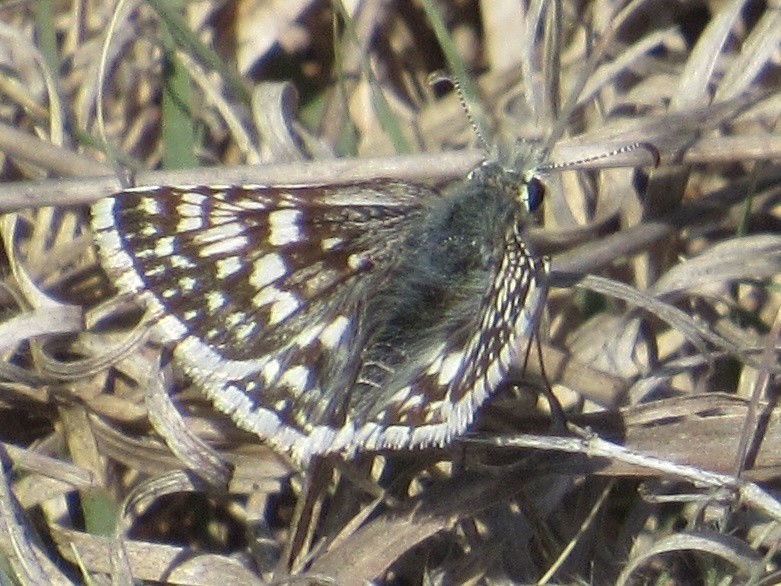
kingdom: Animalia
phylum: Arthropoda
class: Insecta
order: Lepidoptera
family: Hesperiidae
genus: Burnsius
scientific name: Burnsius communis
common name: Common checkered-skipper
